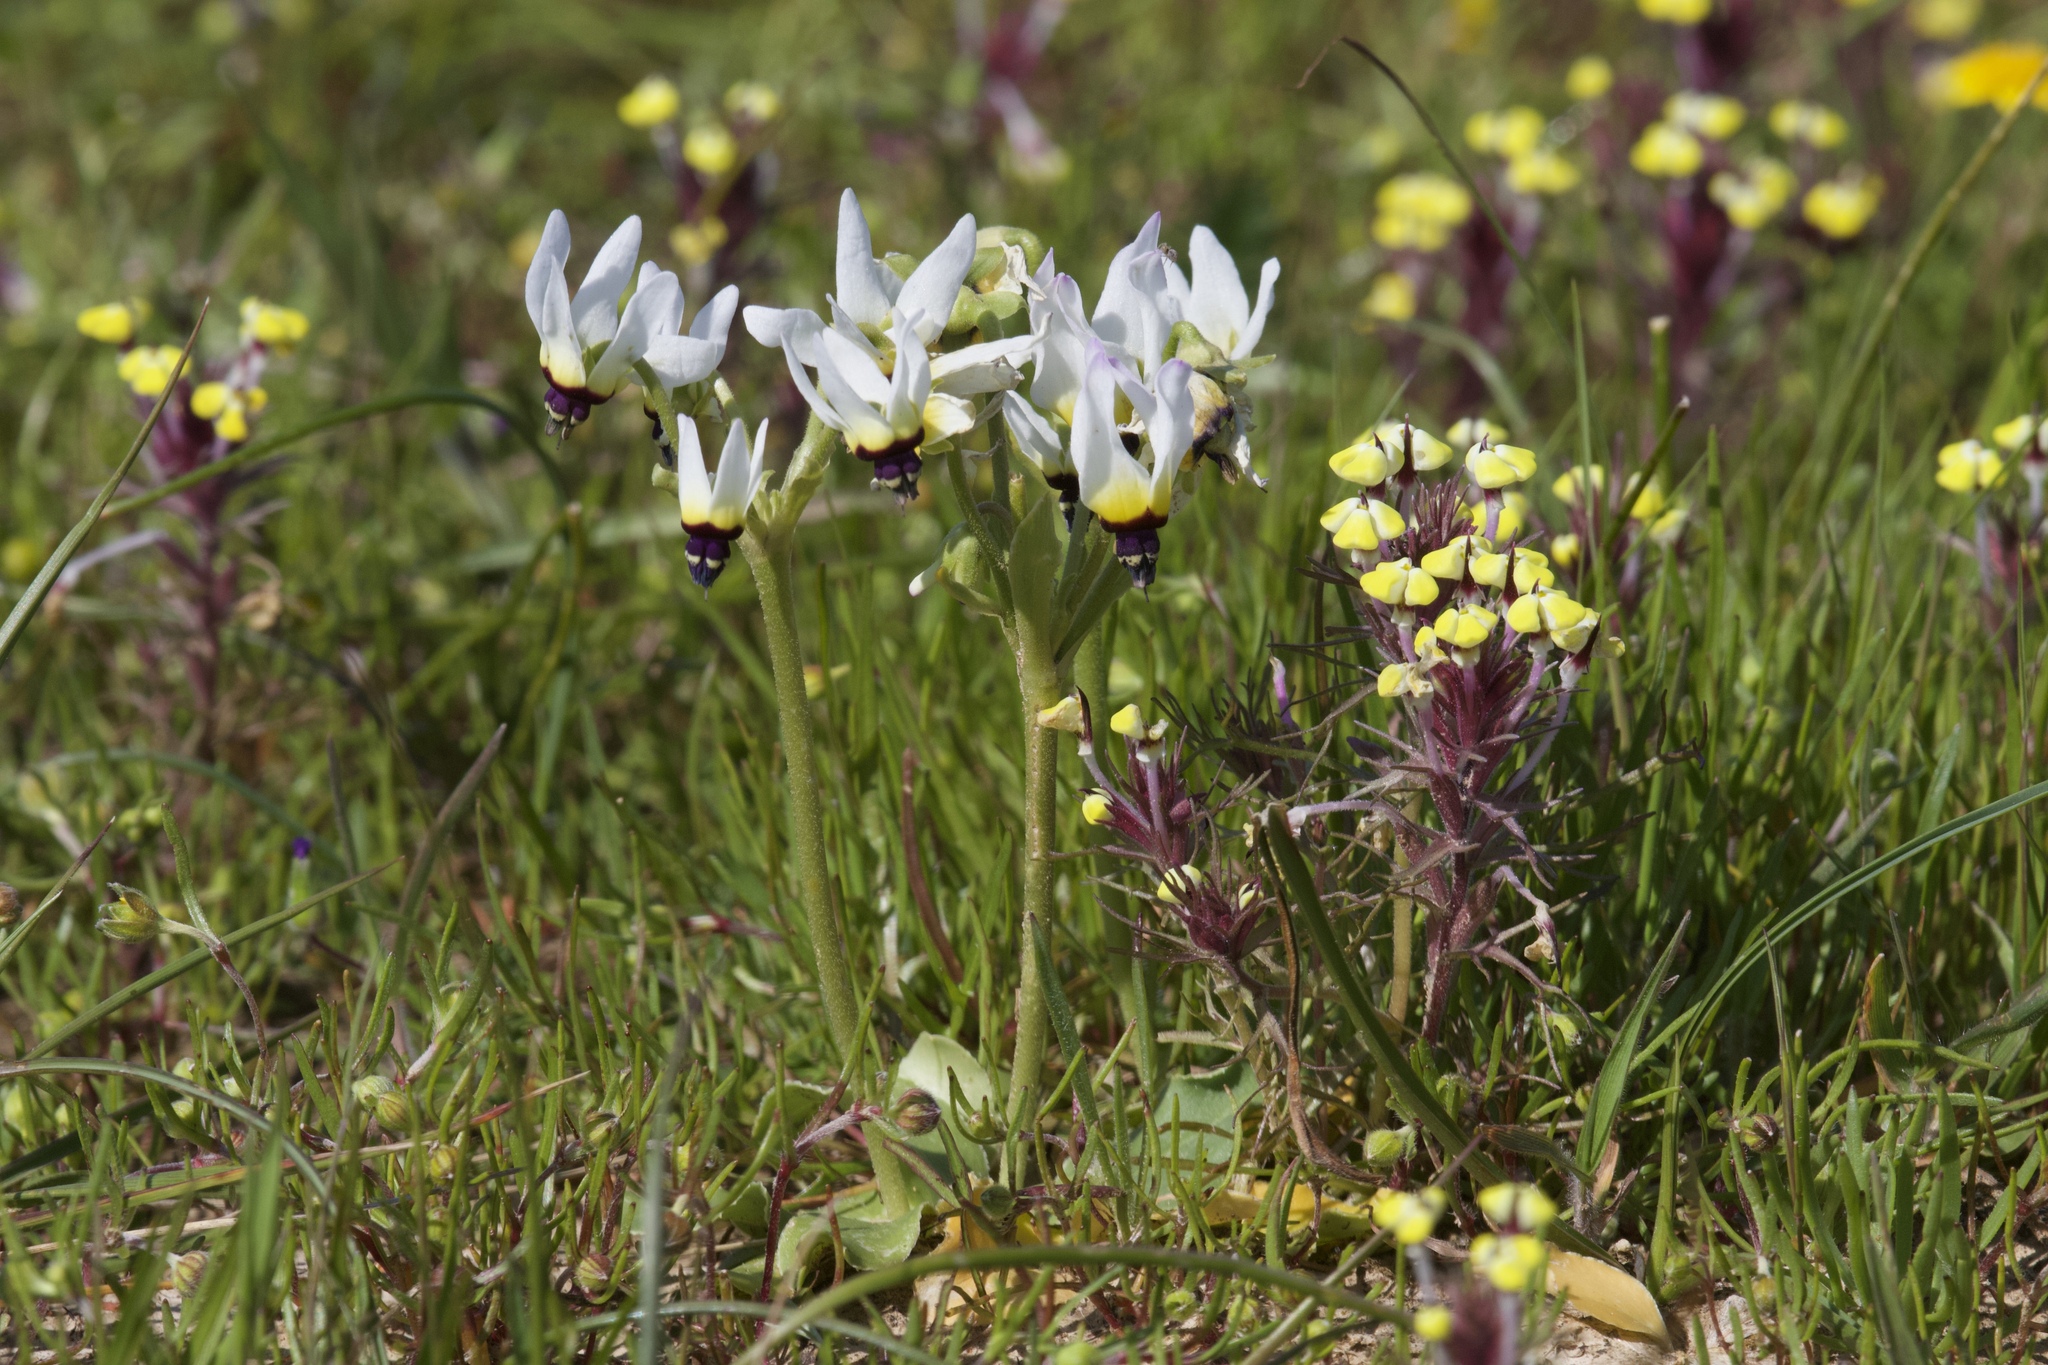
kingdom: Plantae
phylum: Tracheophyta
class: Magnoliopsida
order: Ericales
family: Primulaceae
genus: Dodecatheon
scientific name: Dodecatheon clevelandii
